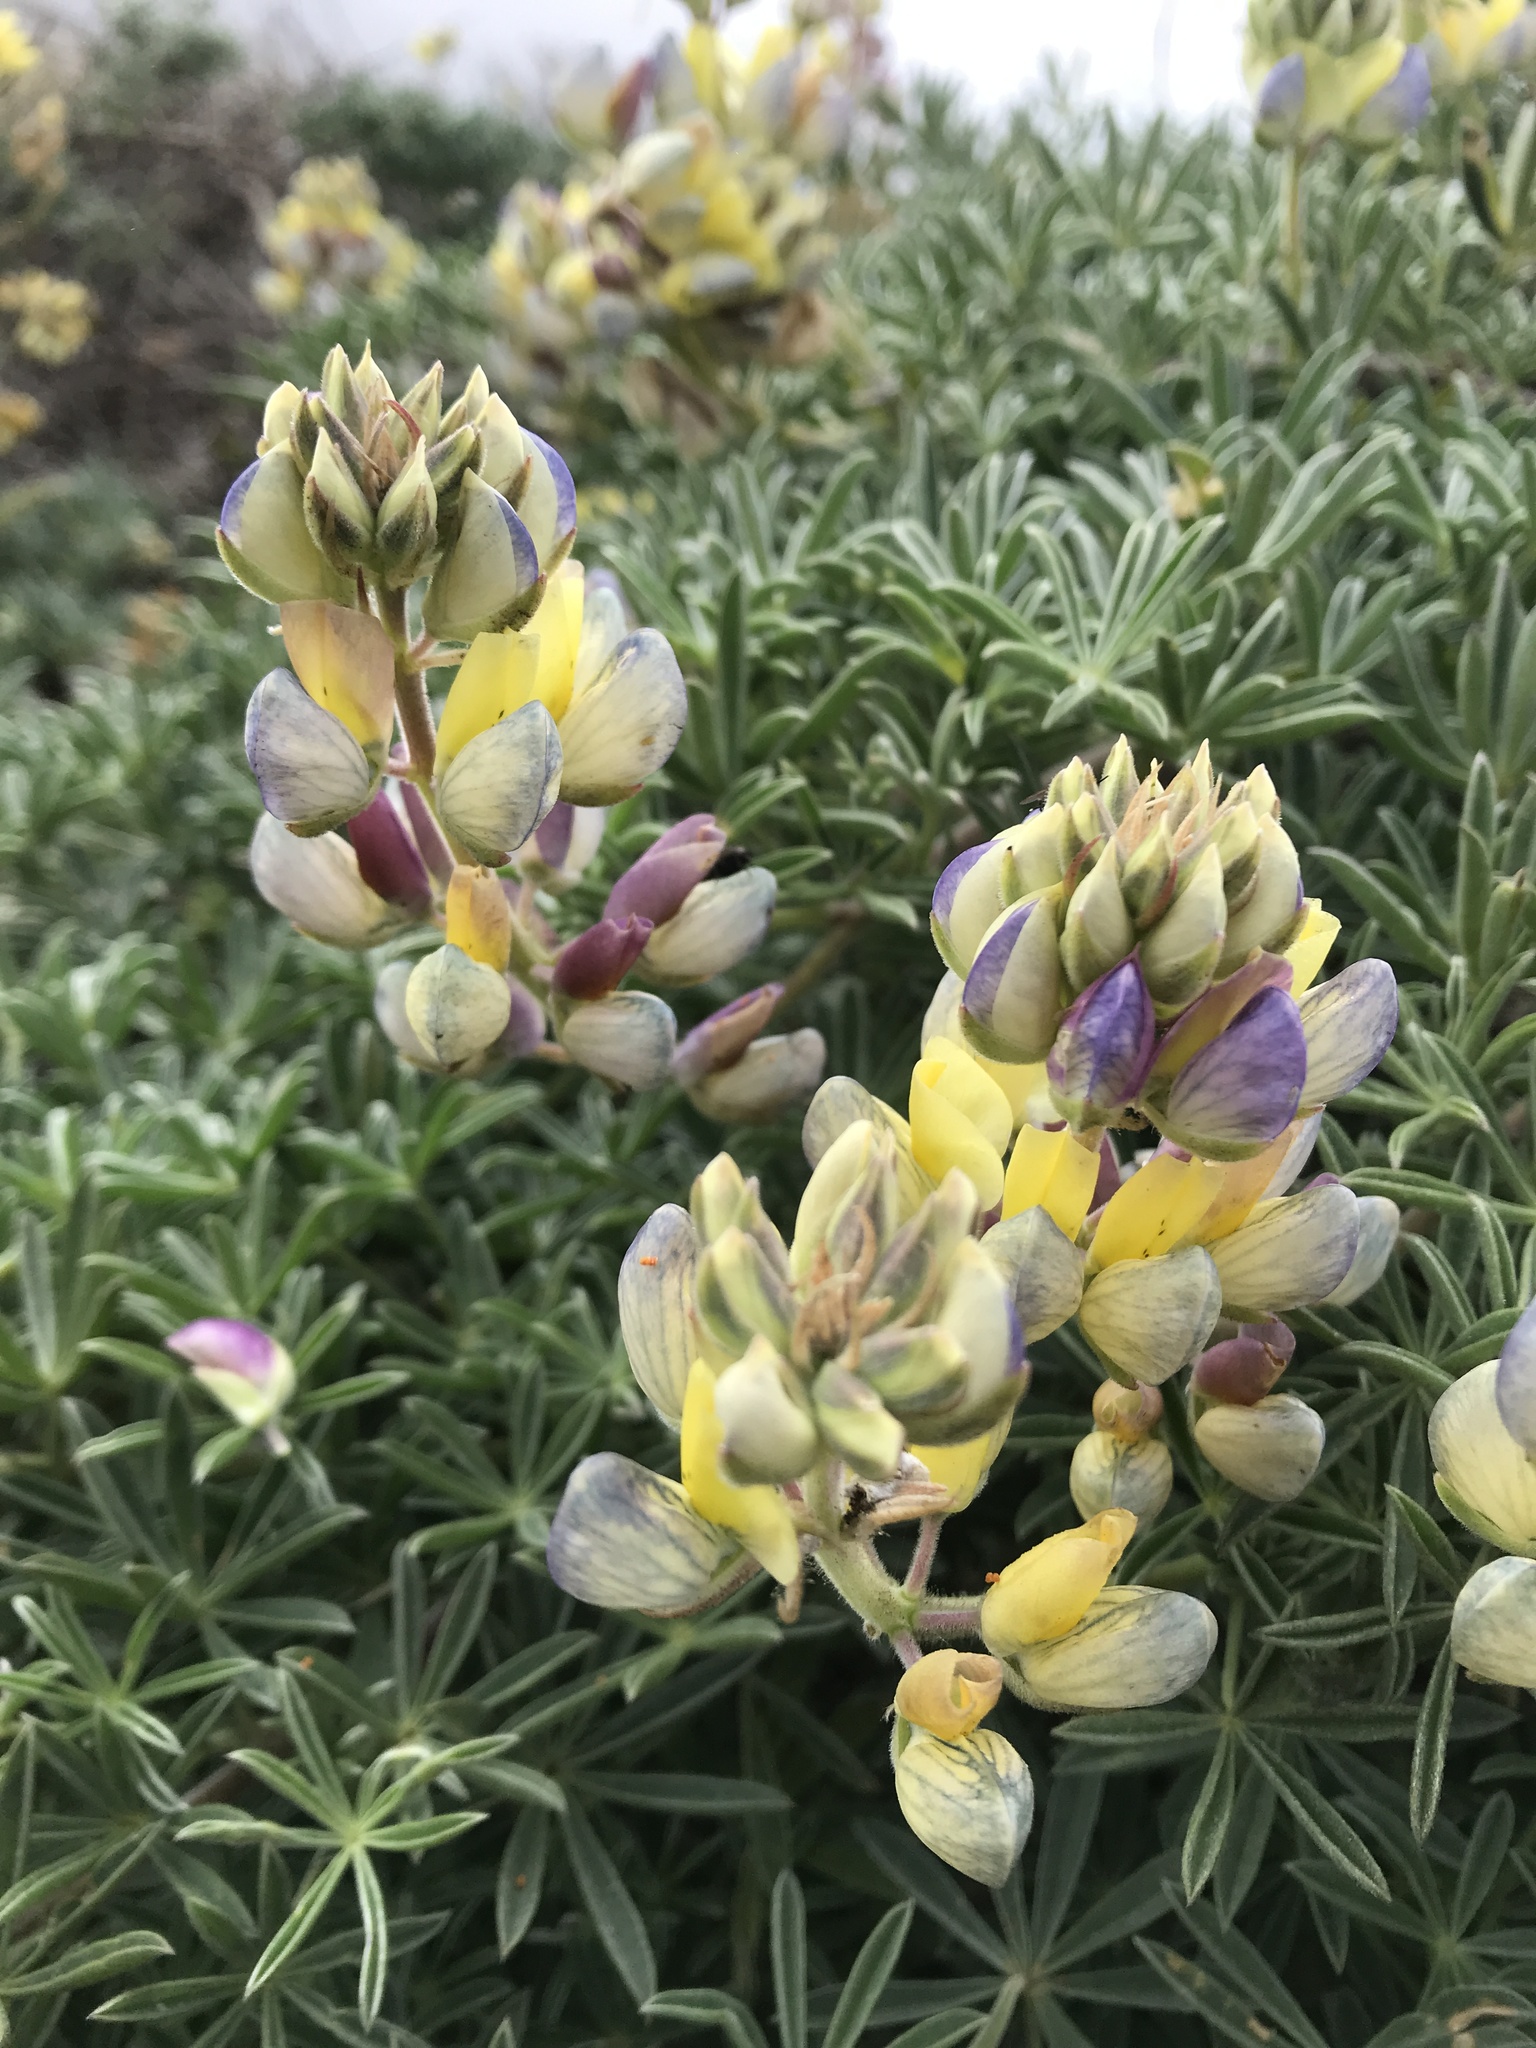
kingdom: Plantae
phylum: Tracheophyta
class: Magnoliopsida
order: Fabales
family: Fabaceae
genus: Lupinus
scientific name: Lupinus variicolor
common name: Lindley's varied lupine
